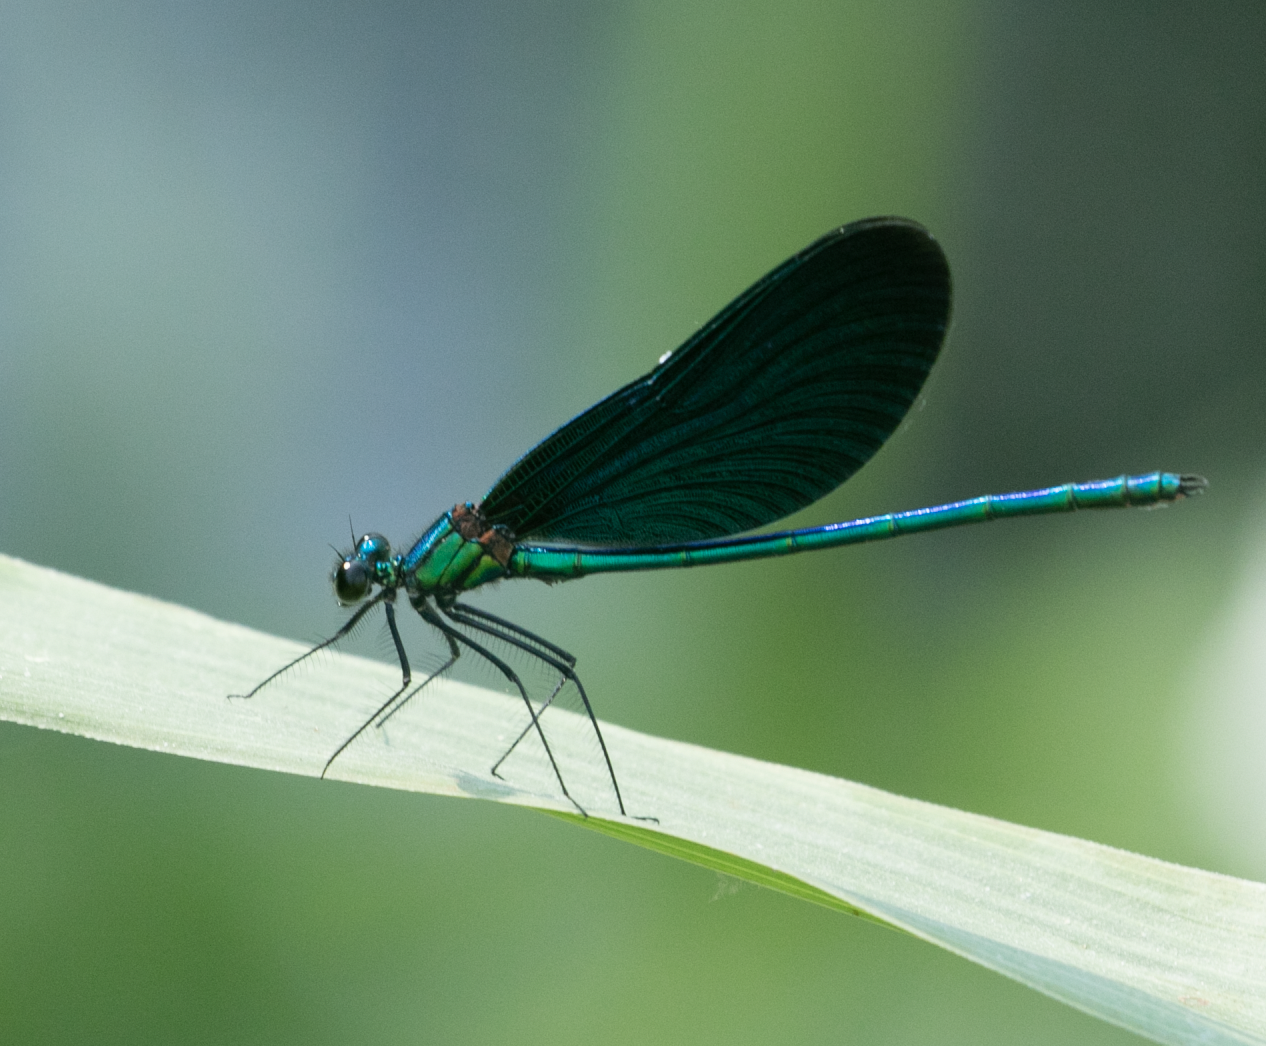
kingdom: Animalia
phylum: Arthropoda
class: Insecta
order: Odonata
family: Calopterygidae
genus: Calopteryx
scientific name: Calopteryx virgo
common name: Beautiful demoiselle
